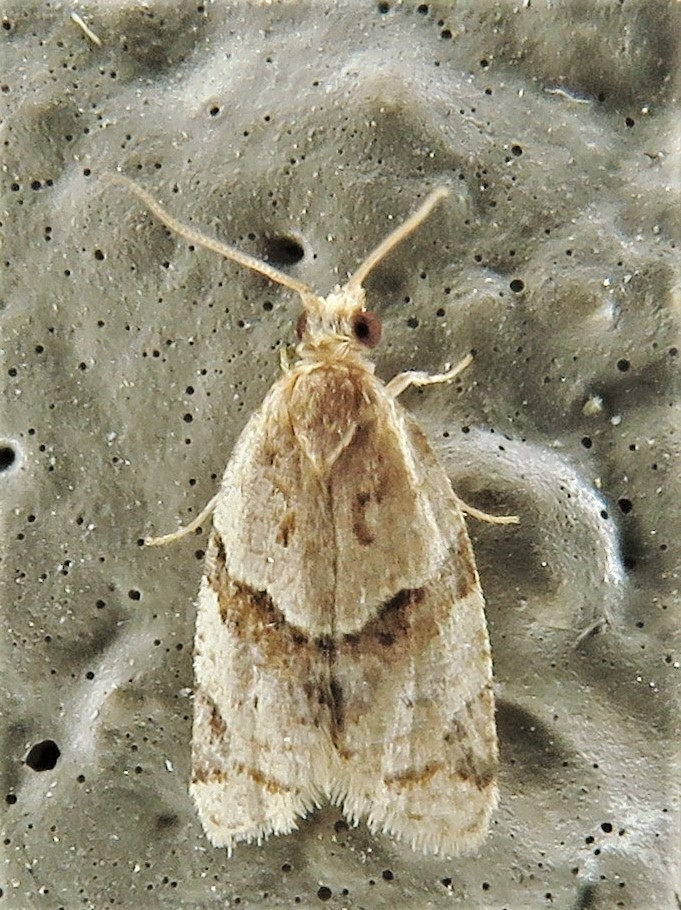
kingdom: Animalia
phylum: Arthropoda
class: Insecta
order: Lepidoptera
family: Tortricidae
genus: Clepsis
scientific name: Clepsis peritana
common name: Garden tortrix
